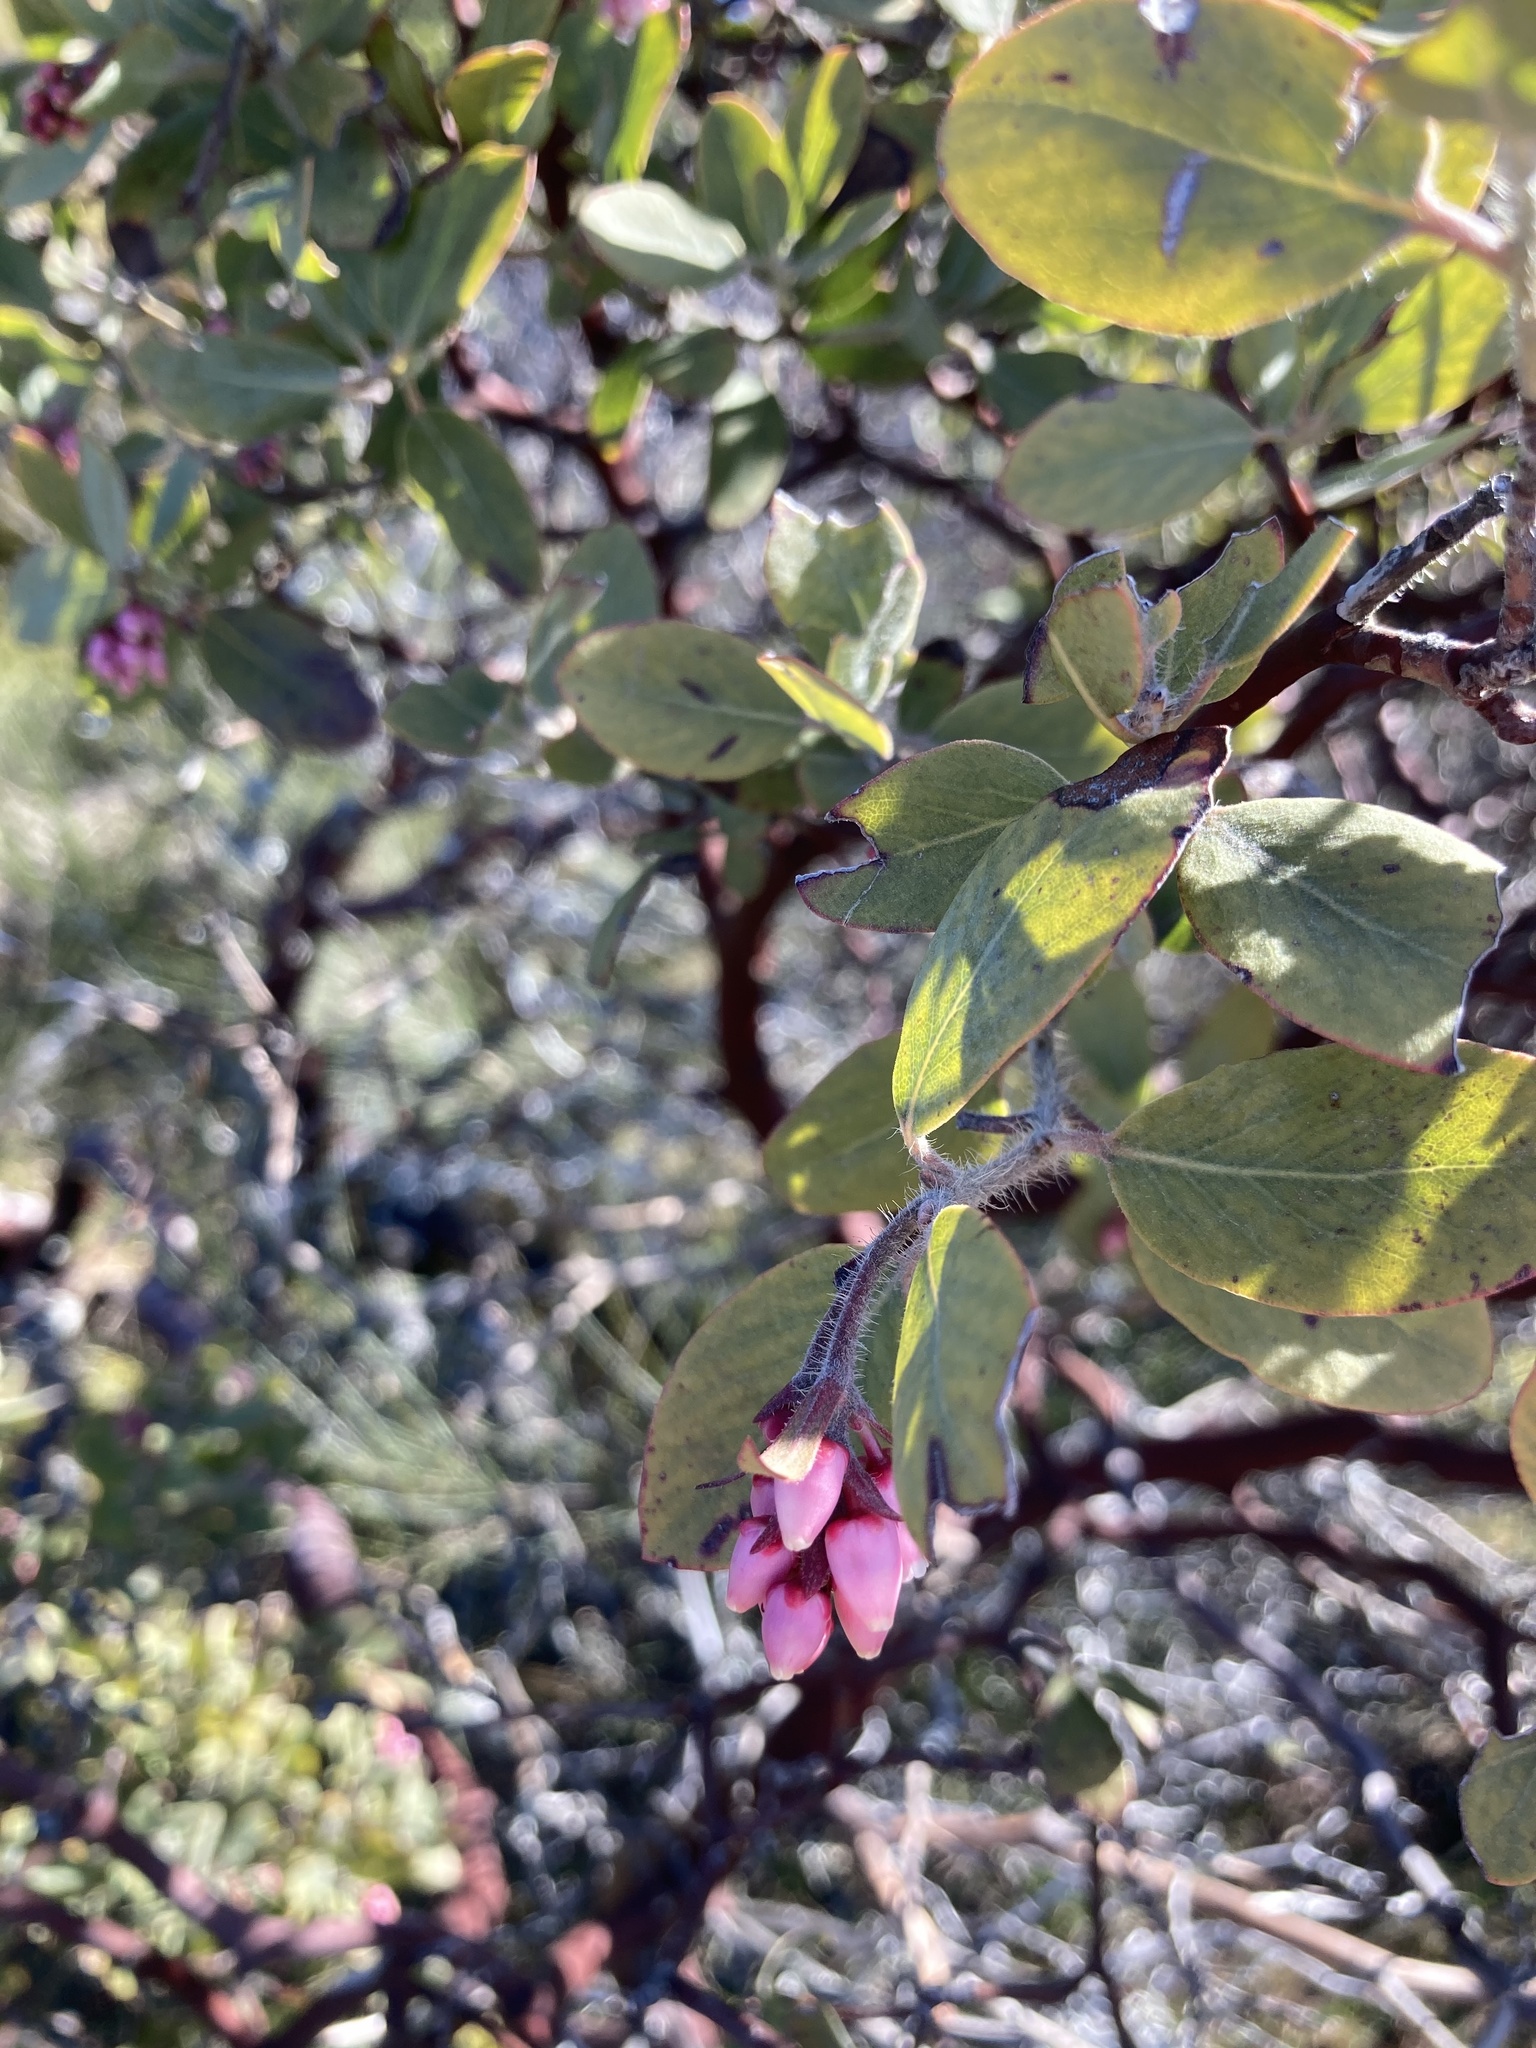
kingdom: Plantae
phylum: Tracheophyta
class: Magnoliopsida
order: Ericales
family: Ericaceae
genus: Arctostaphylos
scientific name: Arctostaphylos columbiana
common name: Bristly bearberry
